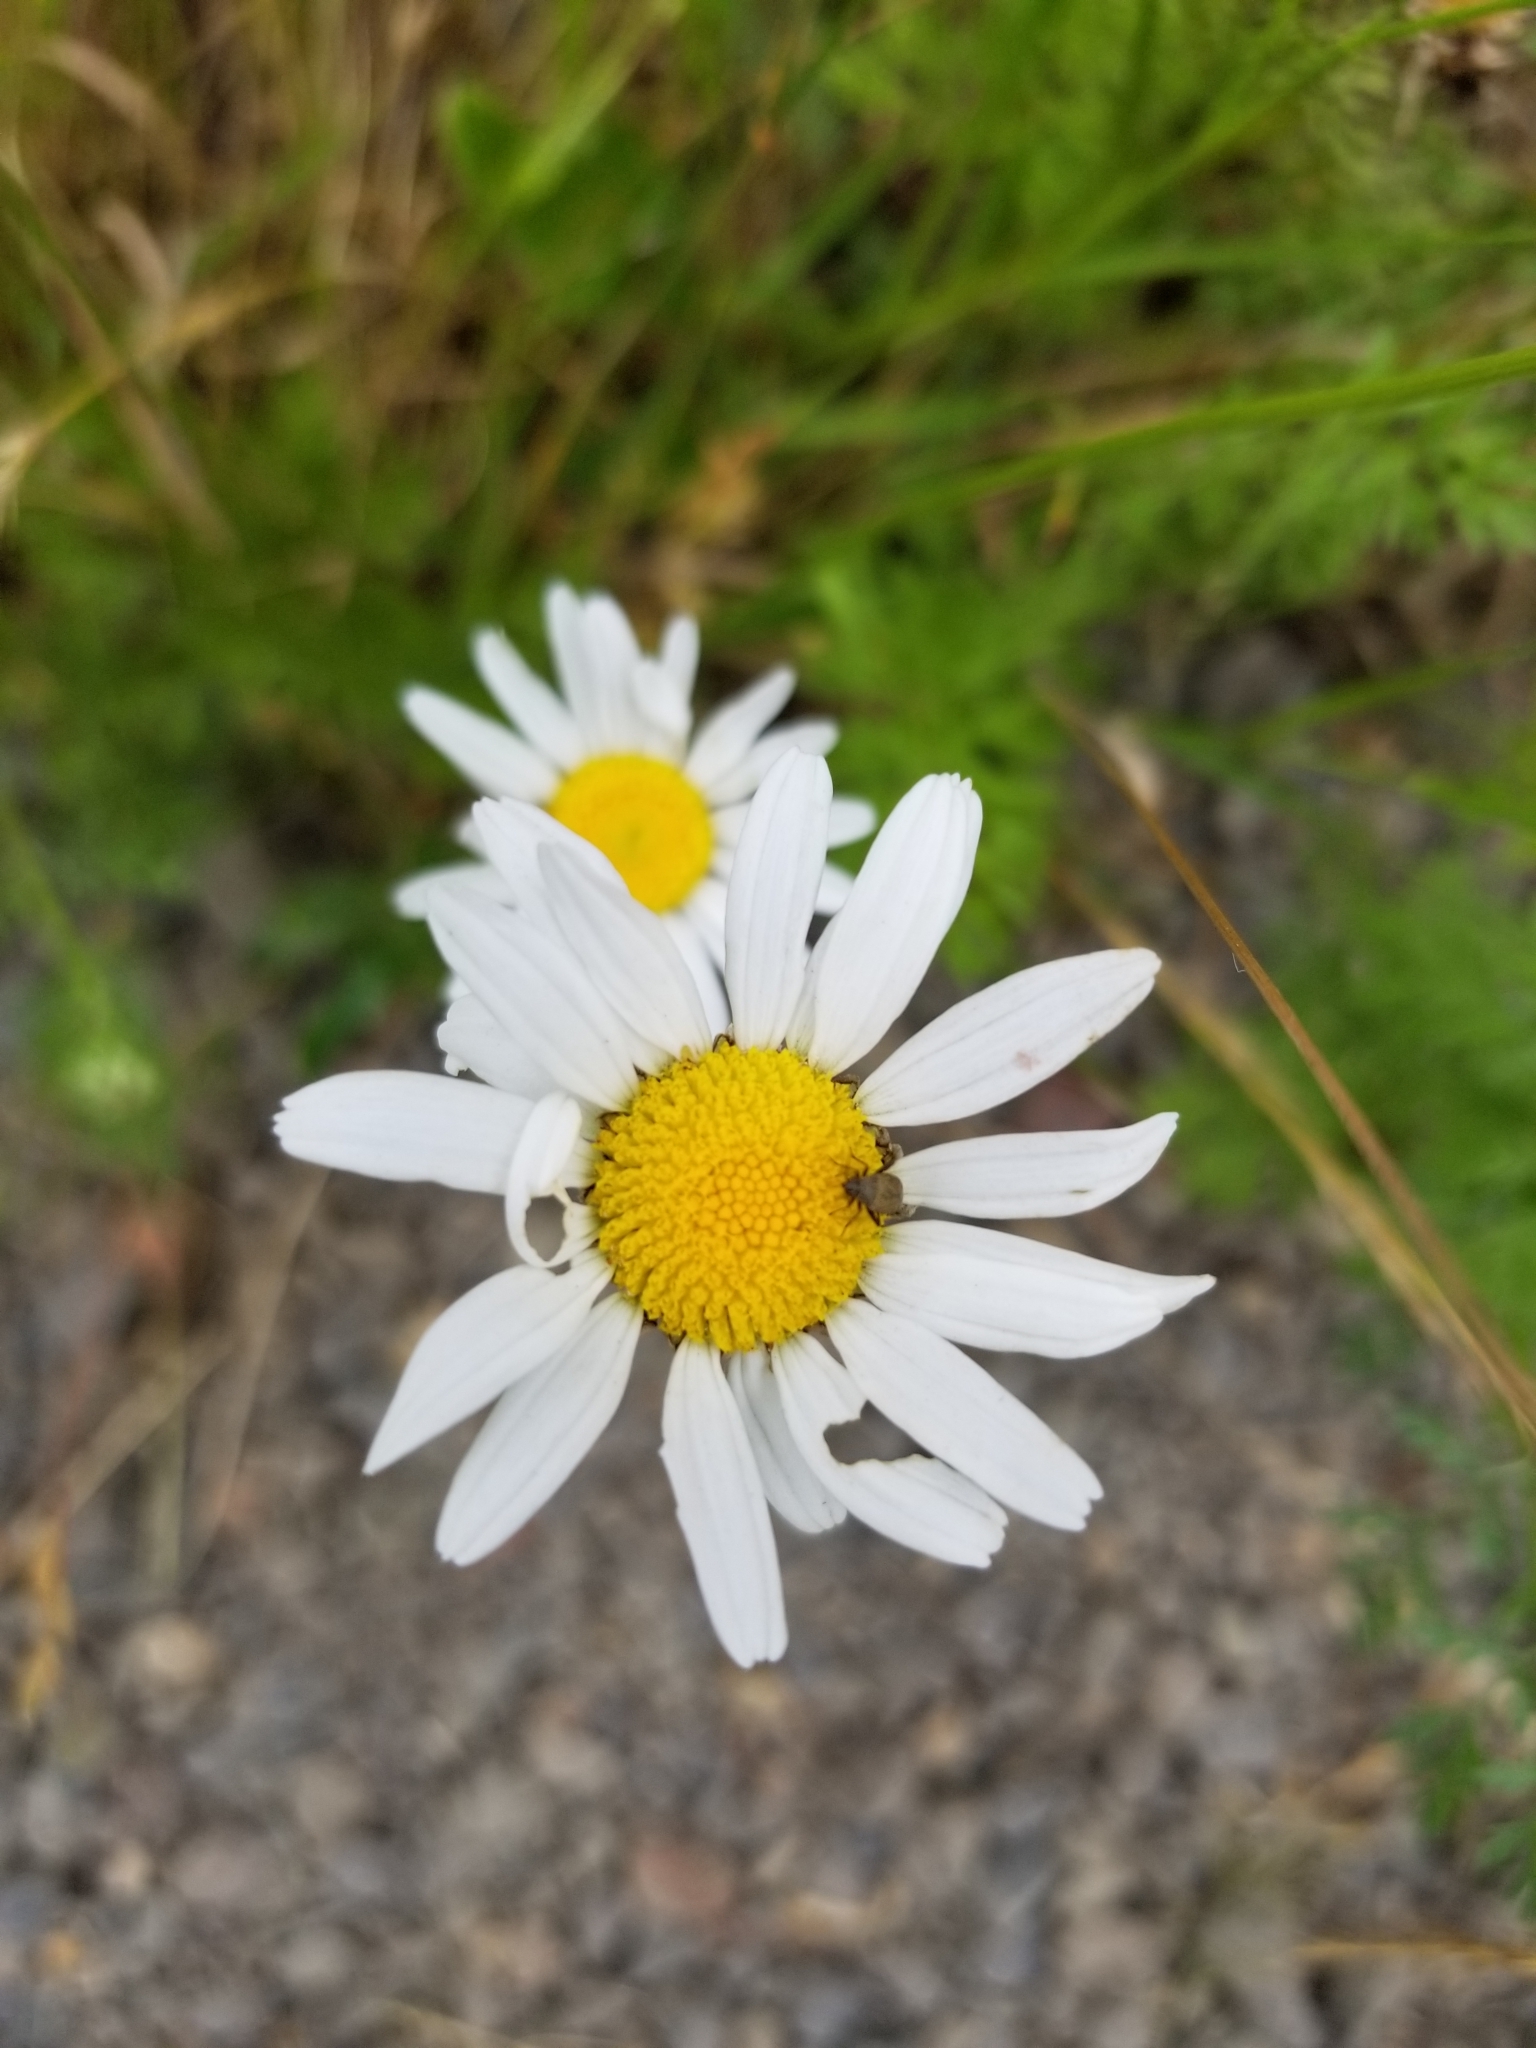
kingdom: Plantae
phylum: Tracheophyta
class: Magnoliopsida
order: Asterales
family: Asteraceae
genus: Leucanthemum
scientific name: Leucanthemum vulgare
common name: Oxeye daisy
